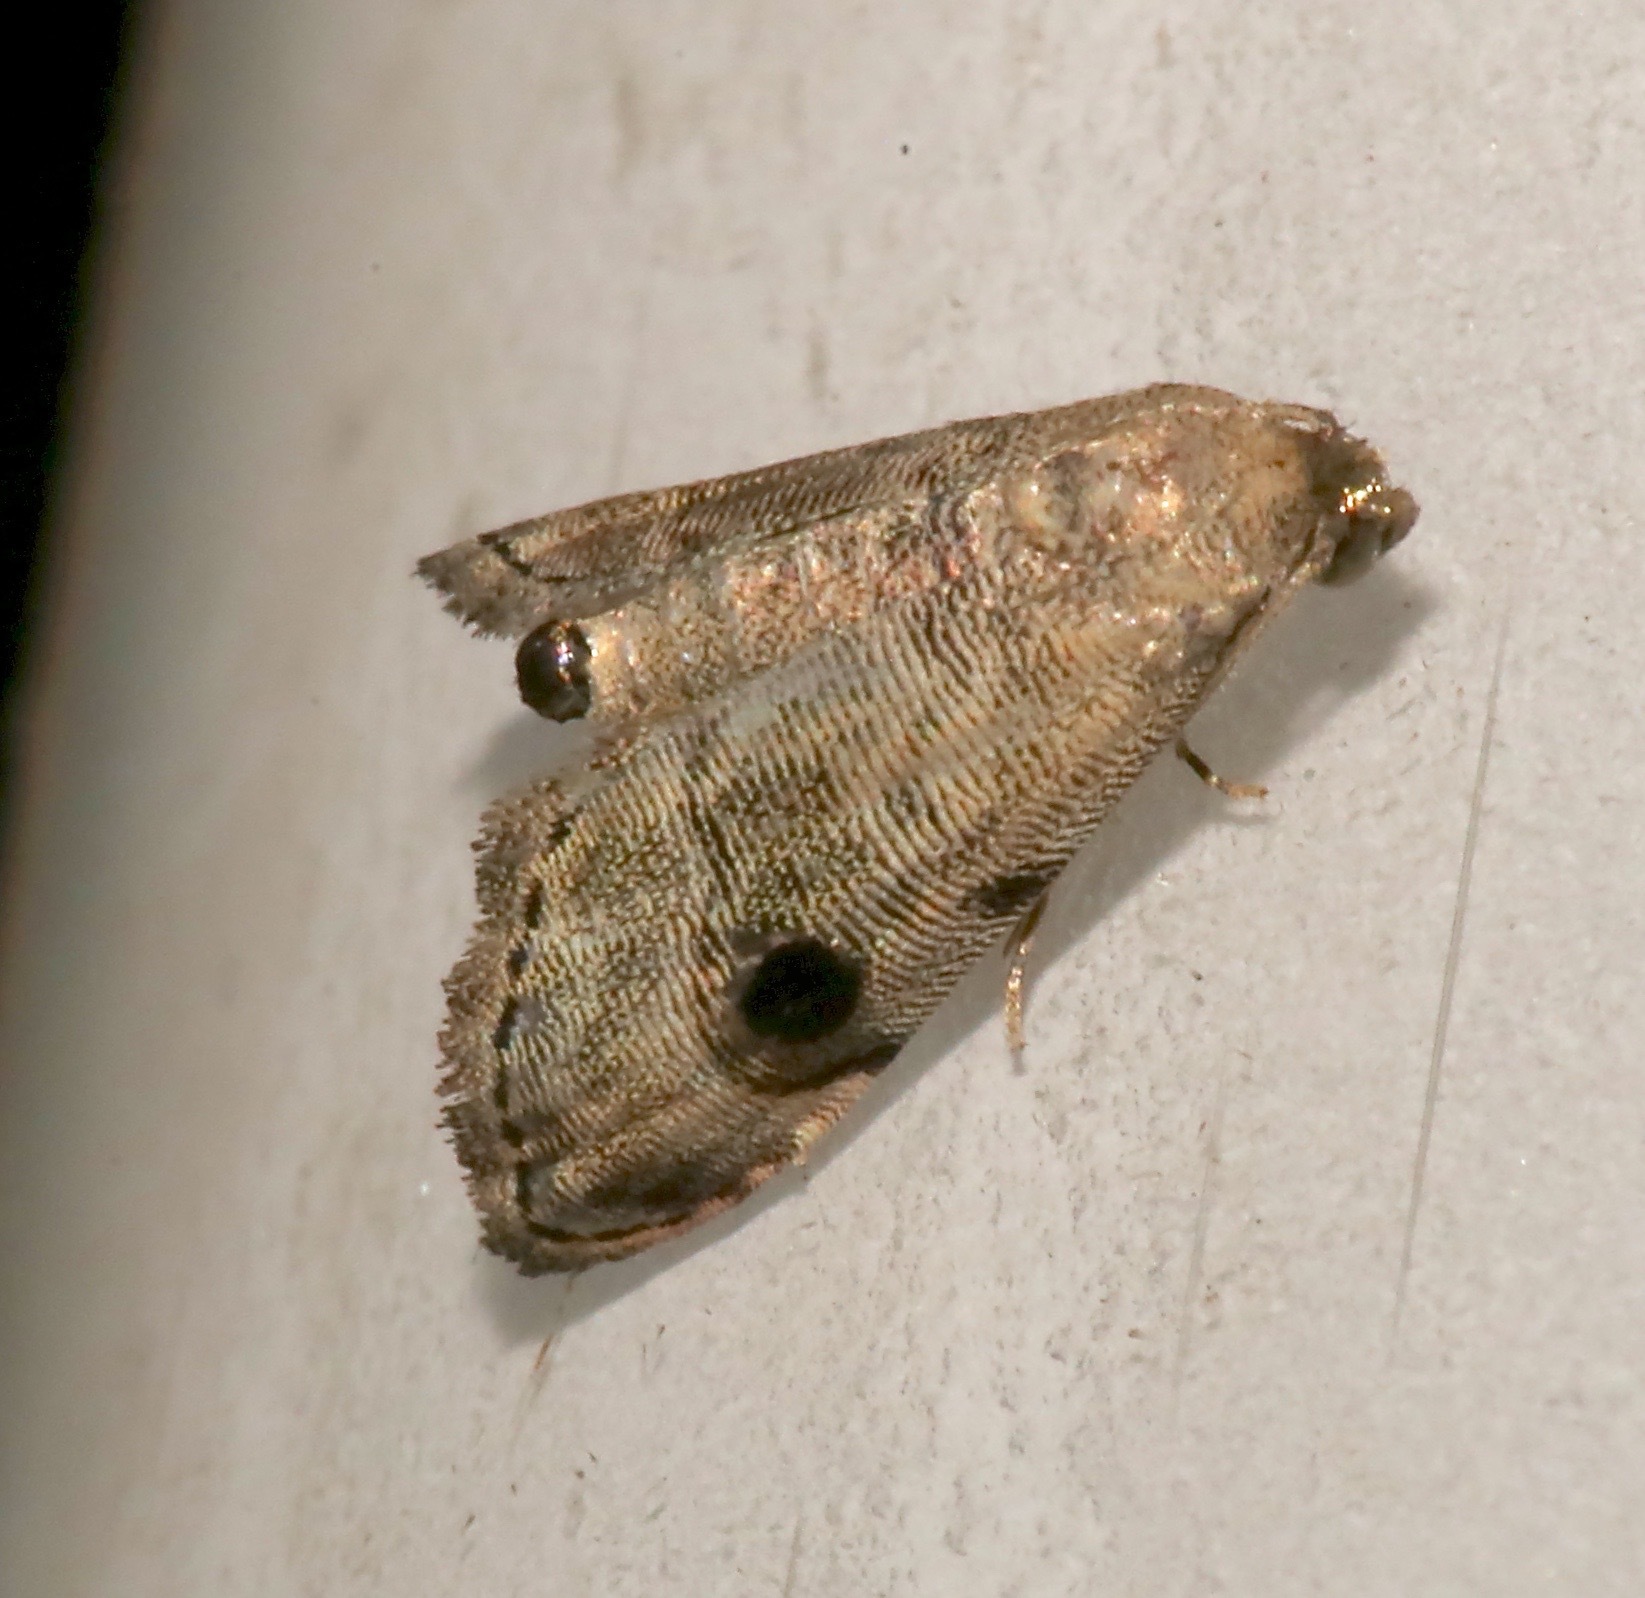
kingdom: Animalia
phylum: Arthropoda
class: Insecta
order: Lepidoptera
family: Noctuidae
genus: Abablemma
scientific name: Abablemma brimleyana
